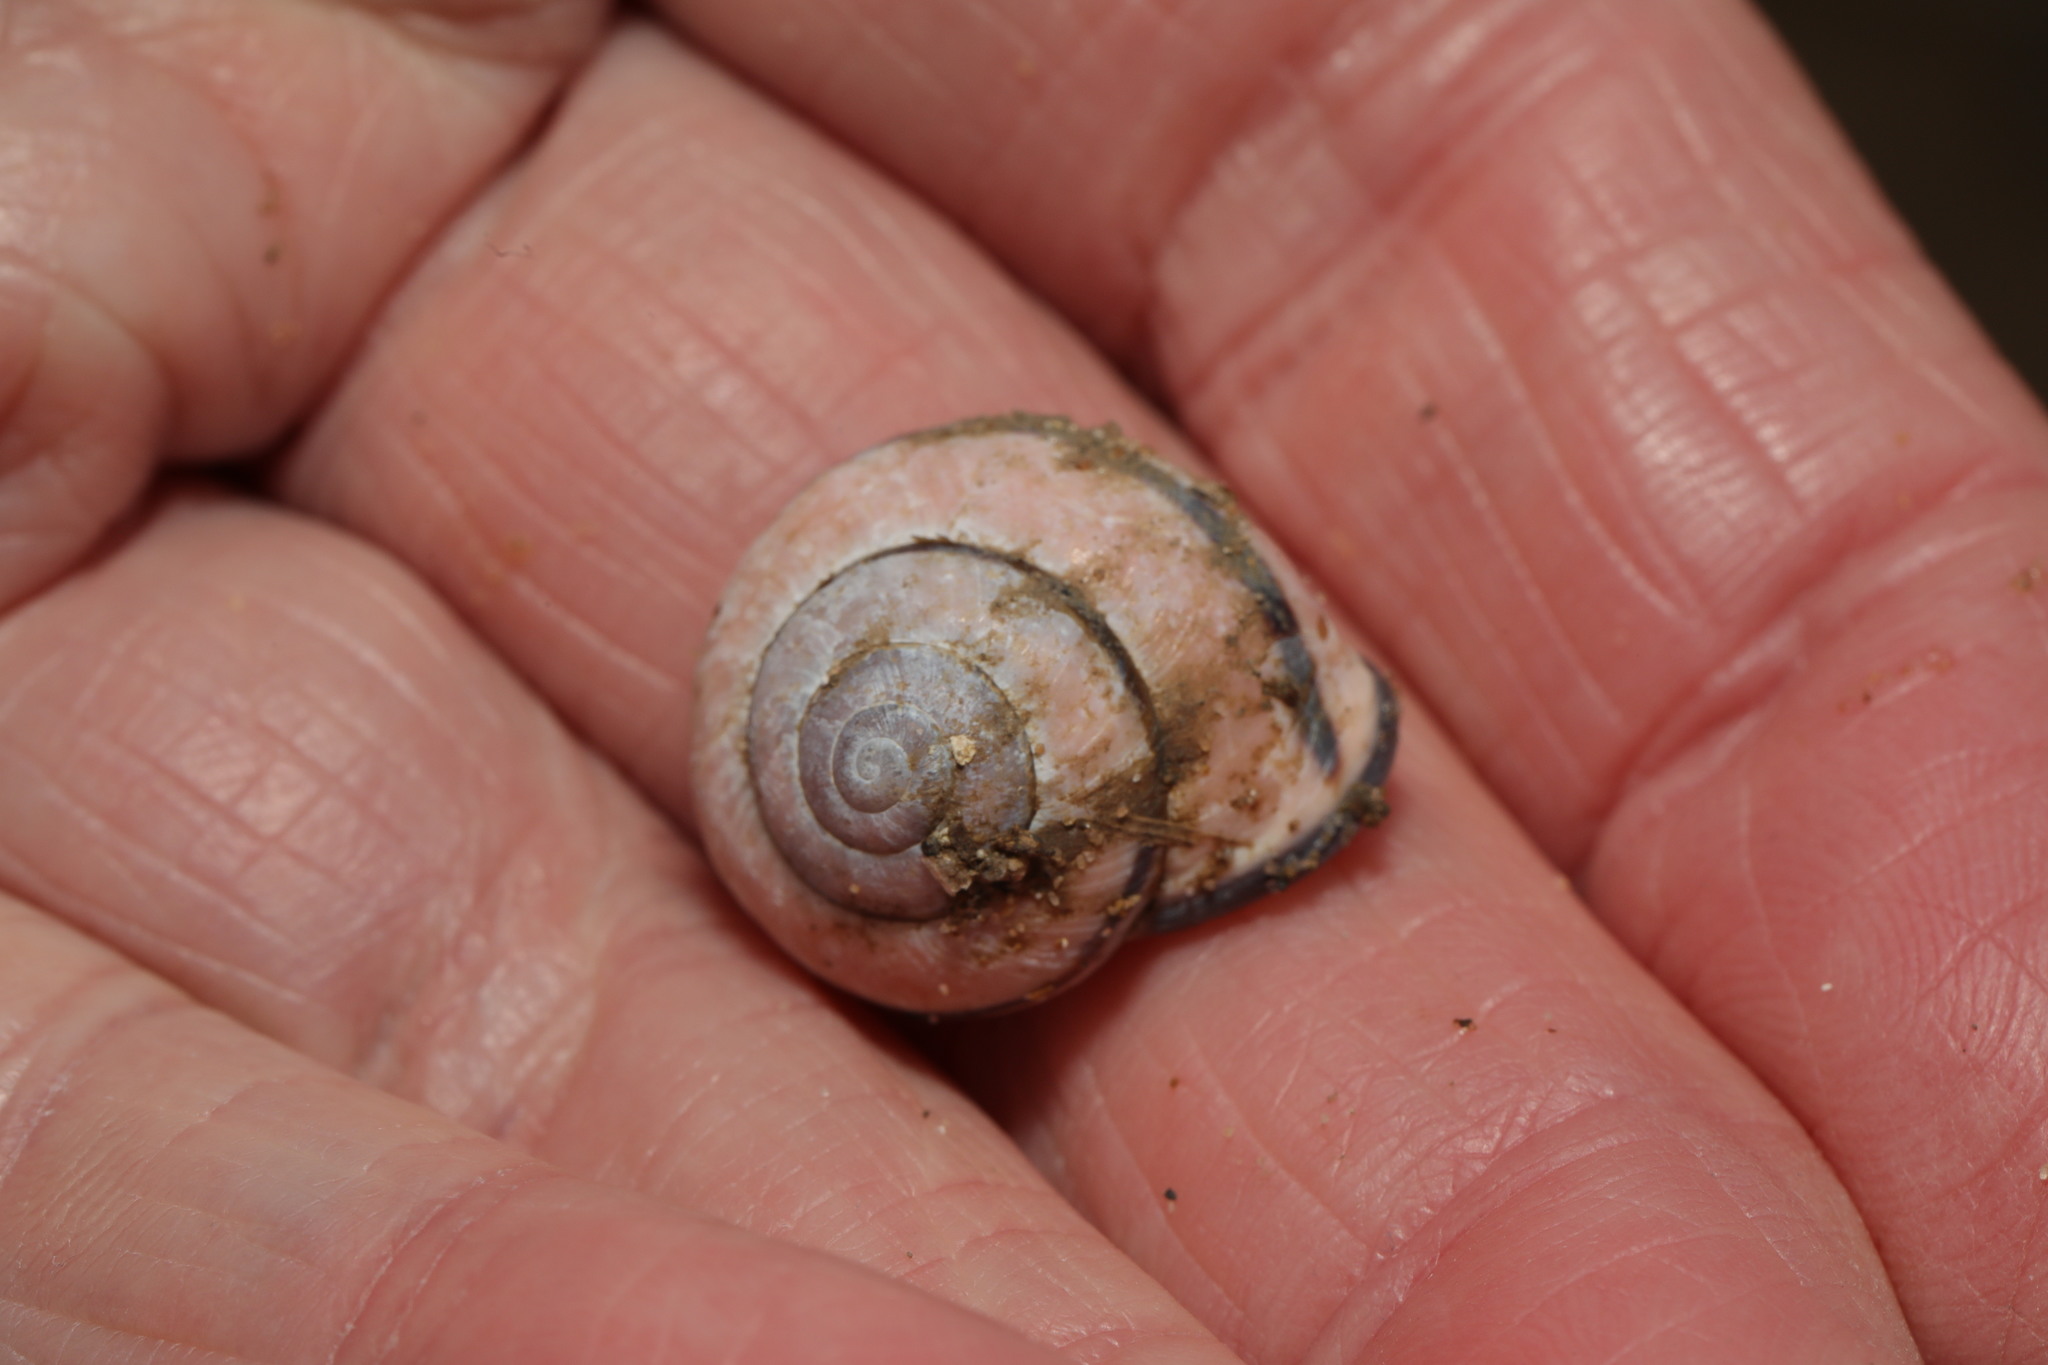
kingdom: Animalia
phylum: Mollusca
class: Gastropoda
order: Stylommatophora
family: Helicidae
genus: Cepaea
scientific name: Cepaea nemoralis
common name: Grovesnail
